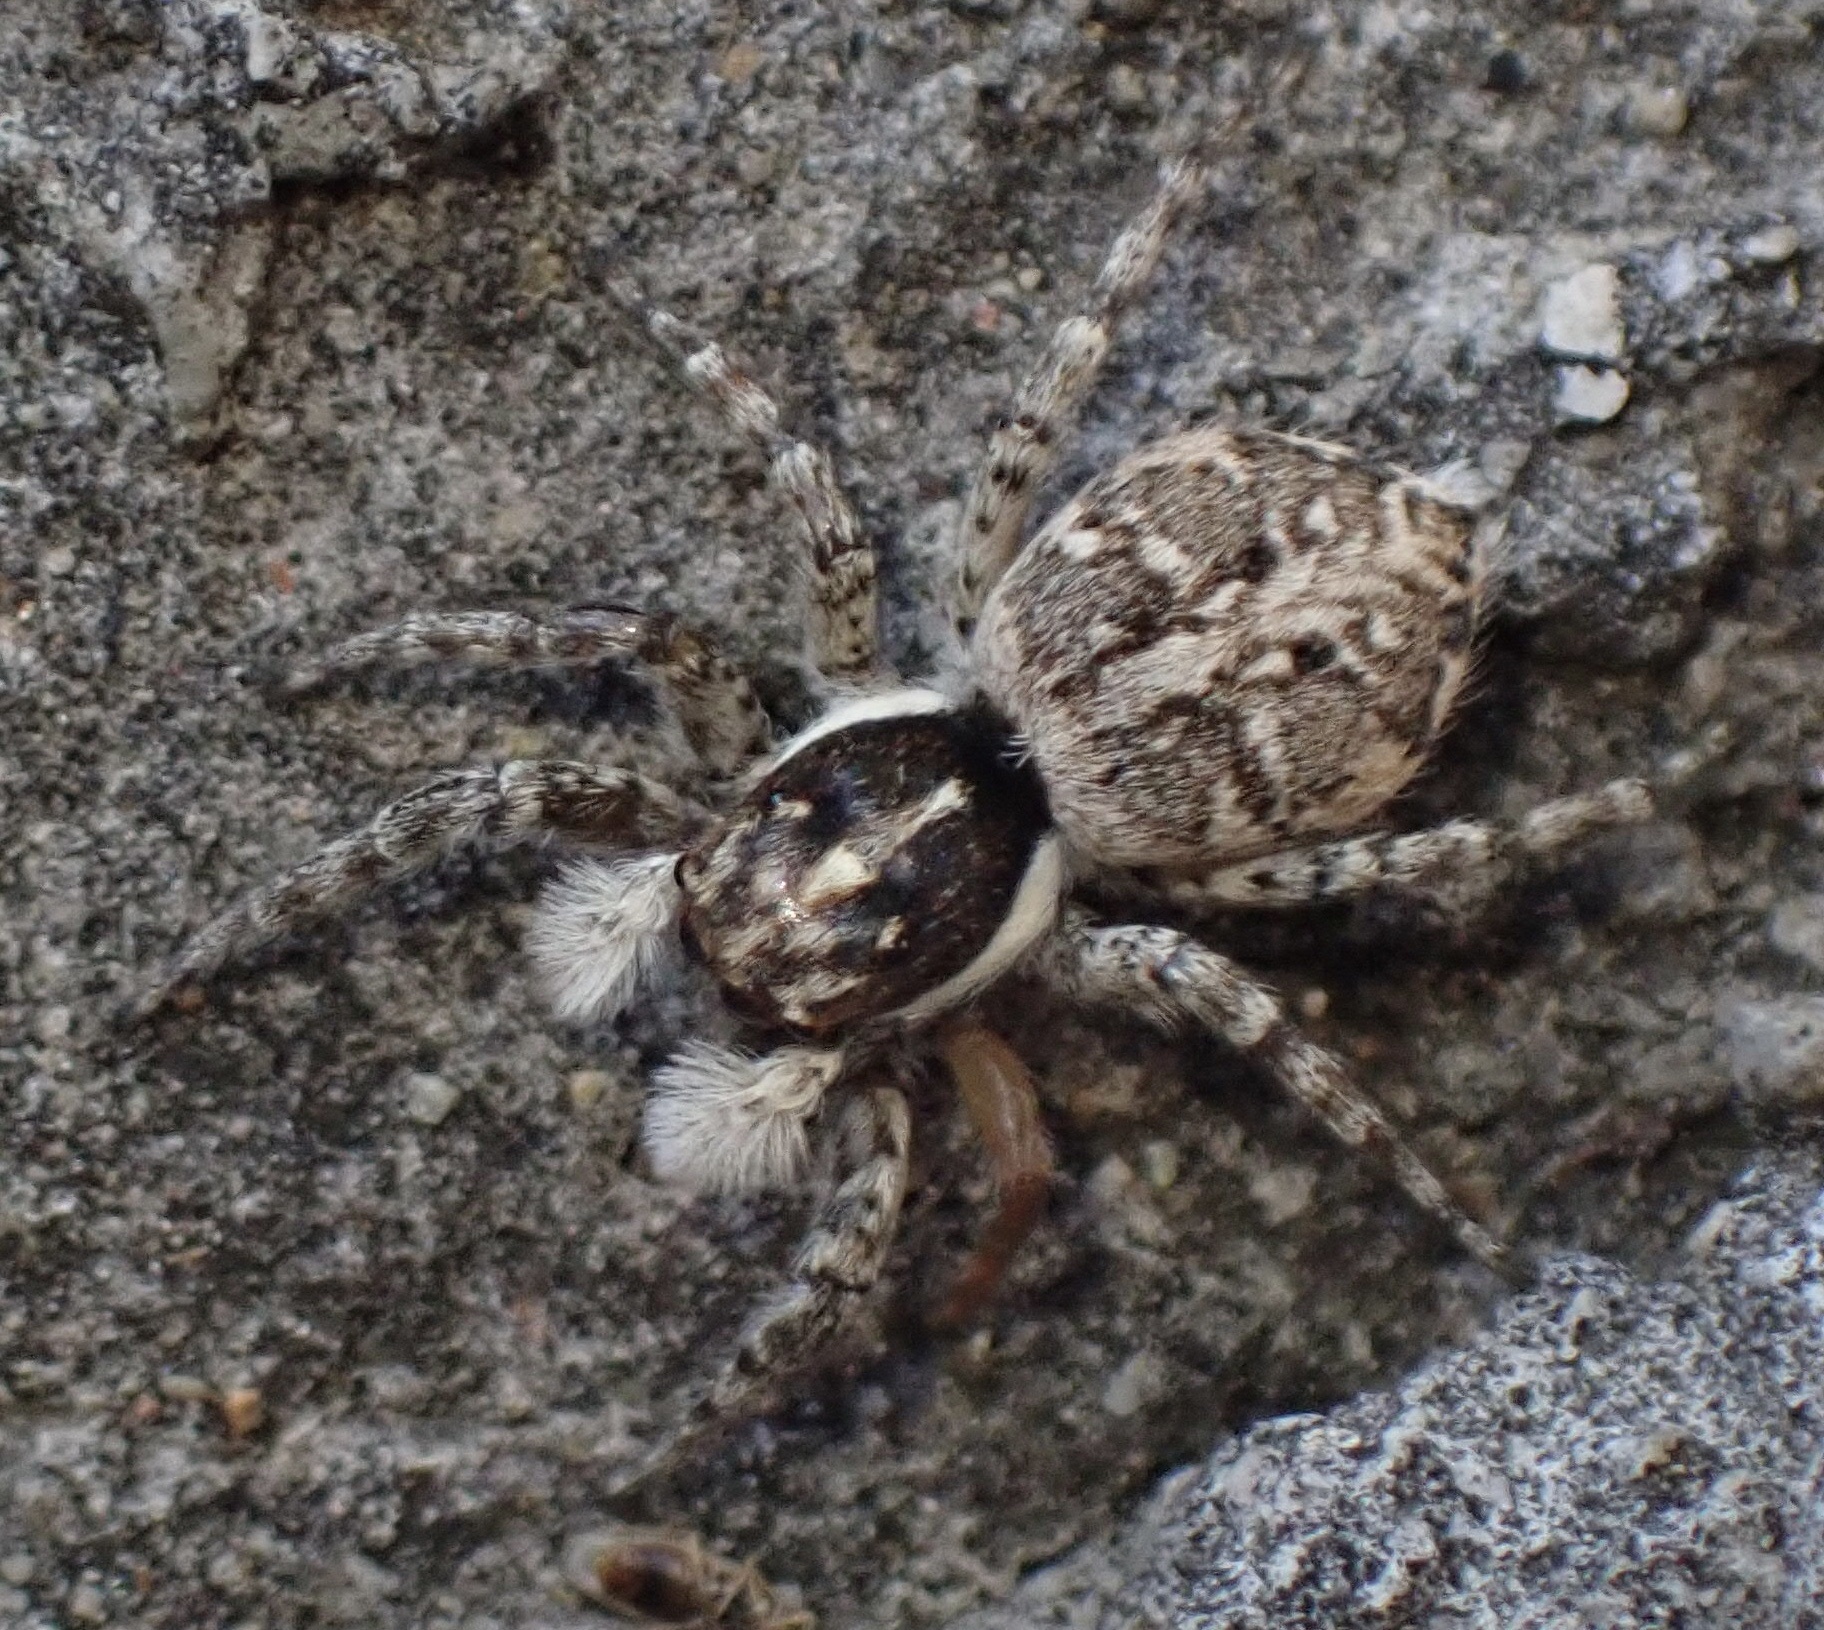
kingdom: Animalia
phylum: Arthropoda
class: Arachnida
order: Araneae
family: Salticidae
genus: Menemerus
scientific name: Menemerus semilimbatus
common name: Jumping spider
